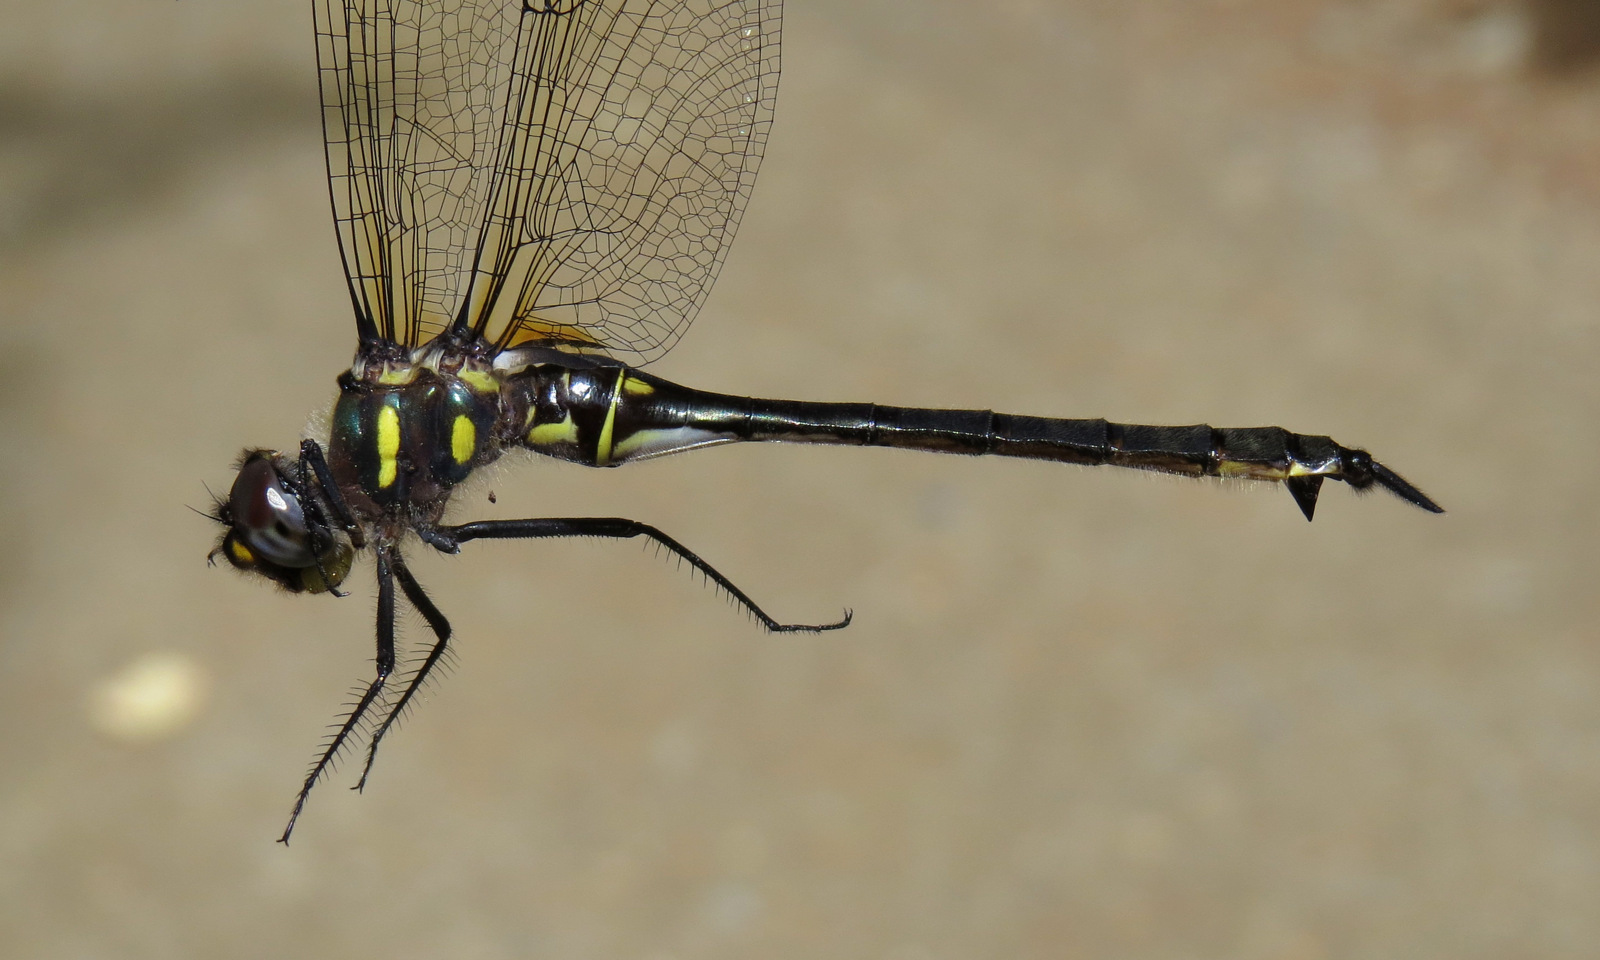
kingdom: Animalia
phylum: Arthropoda
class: Insecta
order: Odonata
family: Corduliidae
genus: Somatochlora
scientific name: Somatochlora elongata
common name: Ski-tipped emerald
